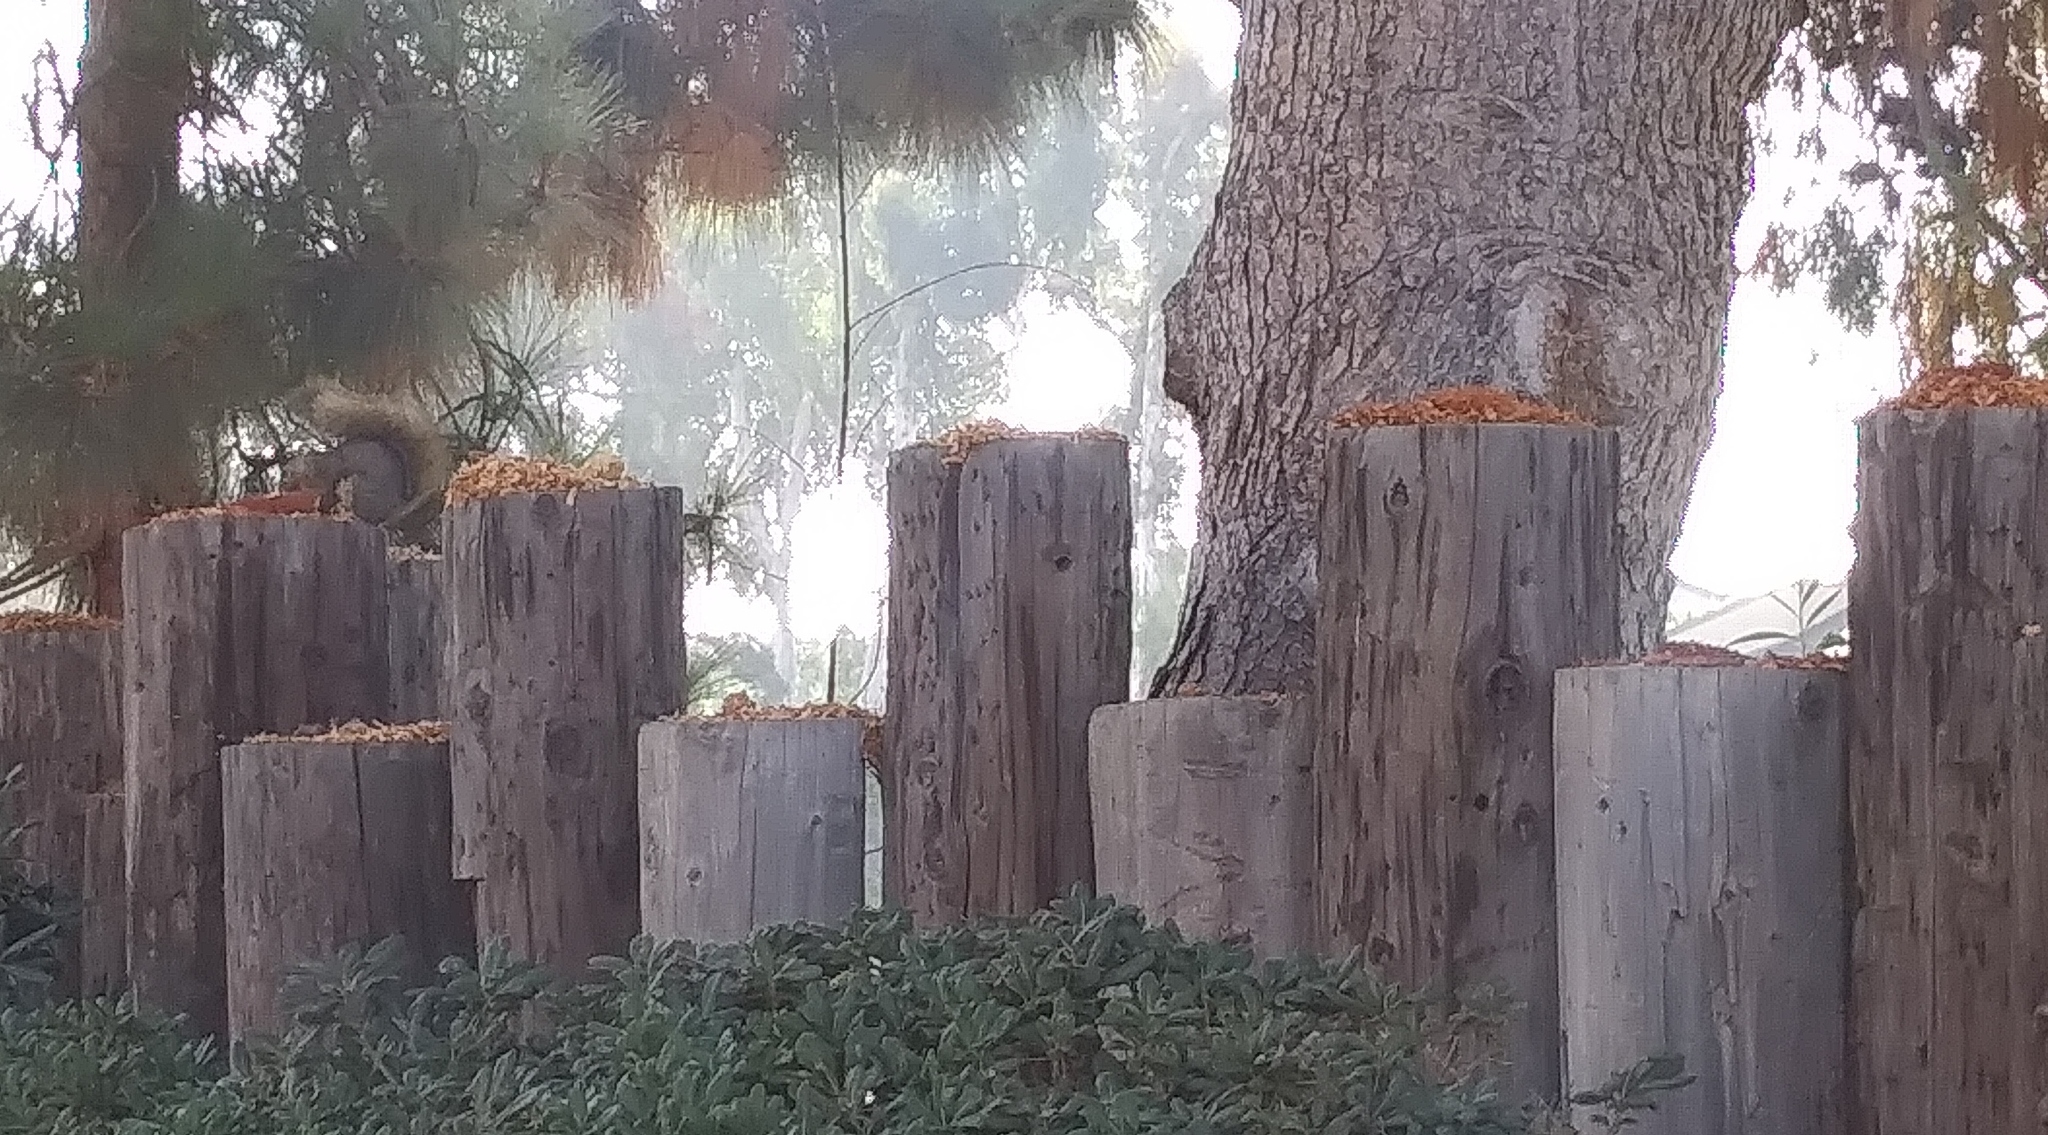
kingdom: Animalia
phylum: Chordata
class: Mammalia
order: Rodentia
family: Sciuridae
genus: Sciurus
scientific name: Sciurus niger
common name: Fox squirrel
